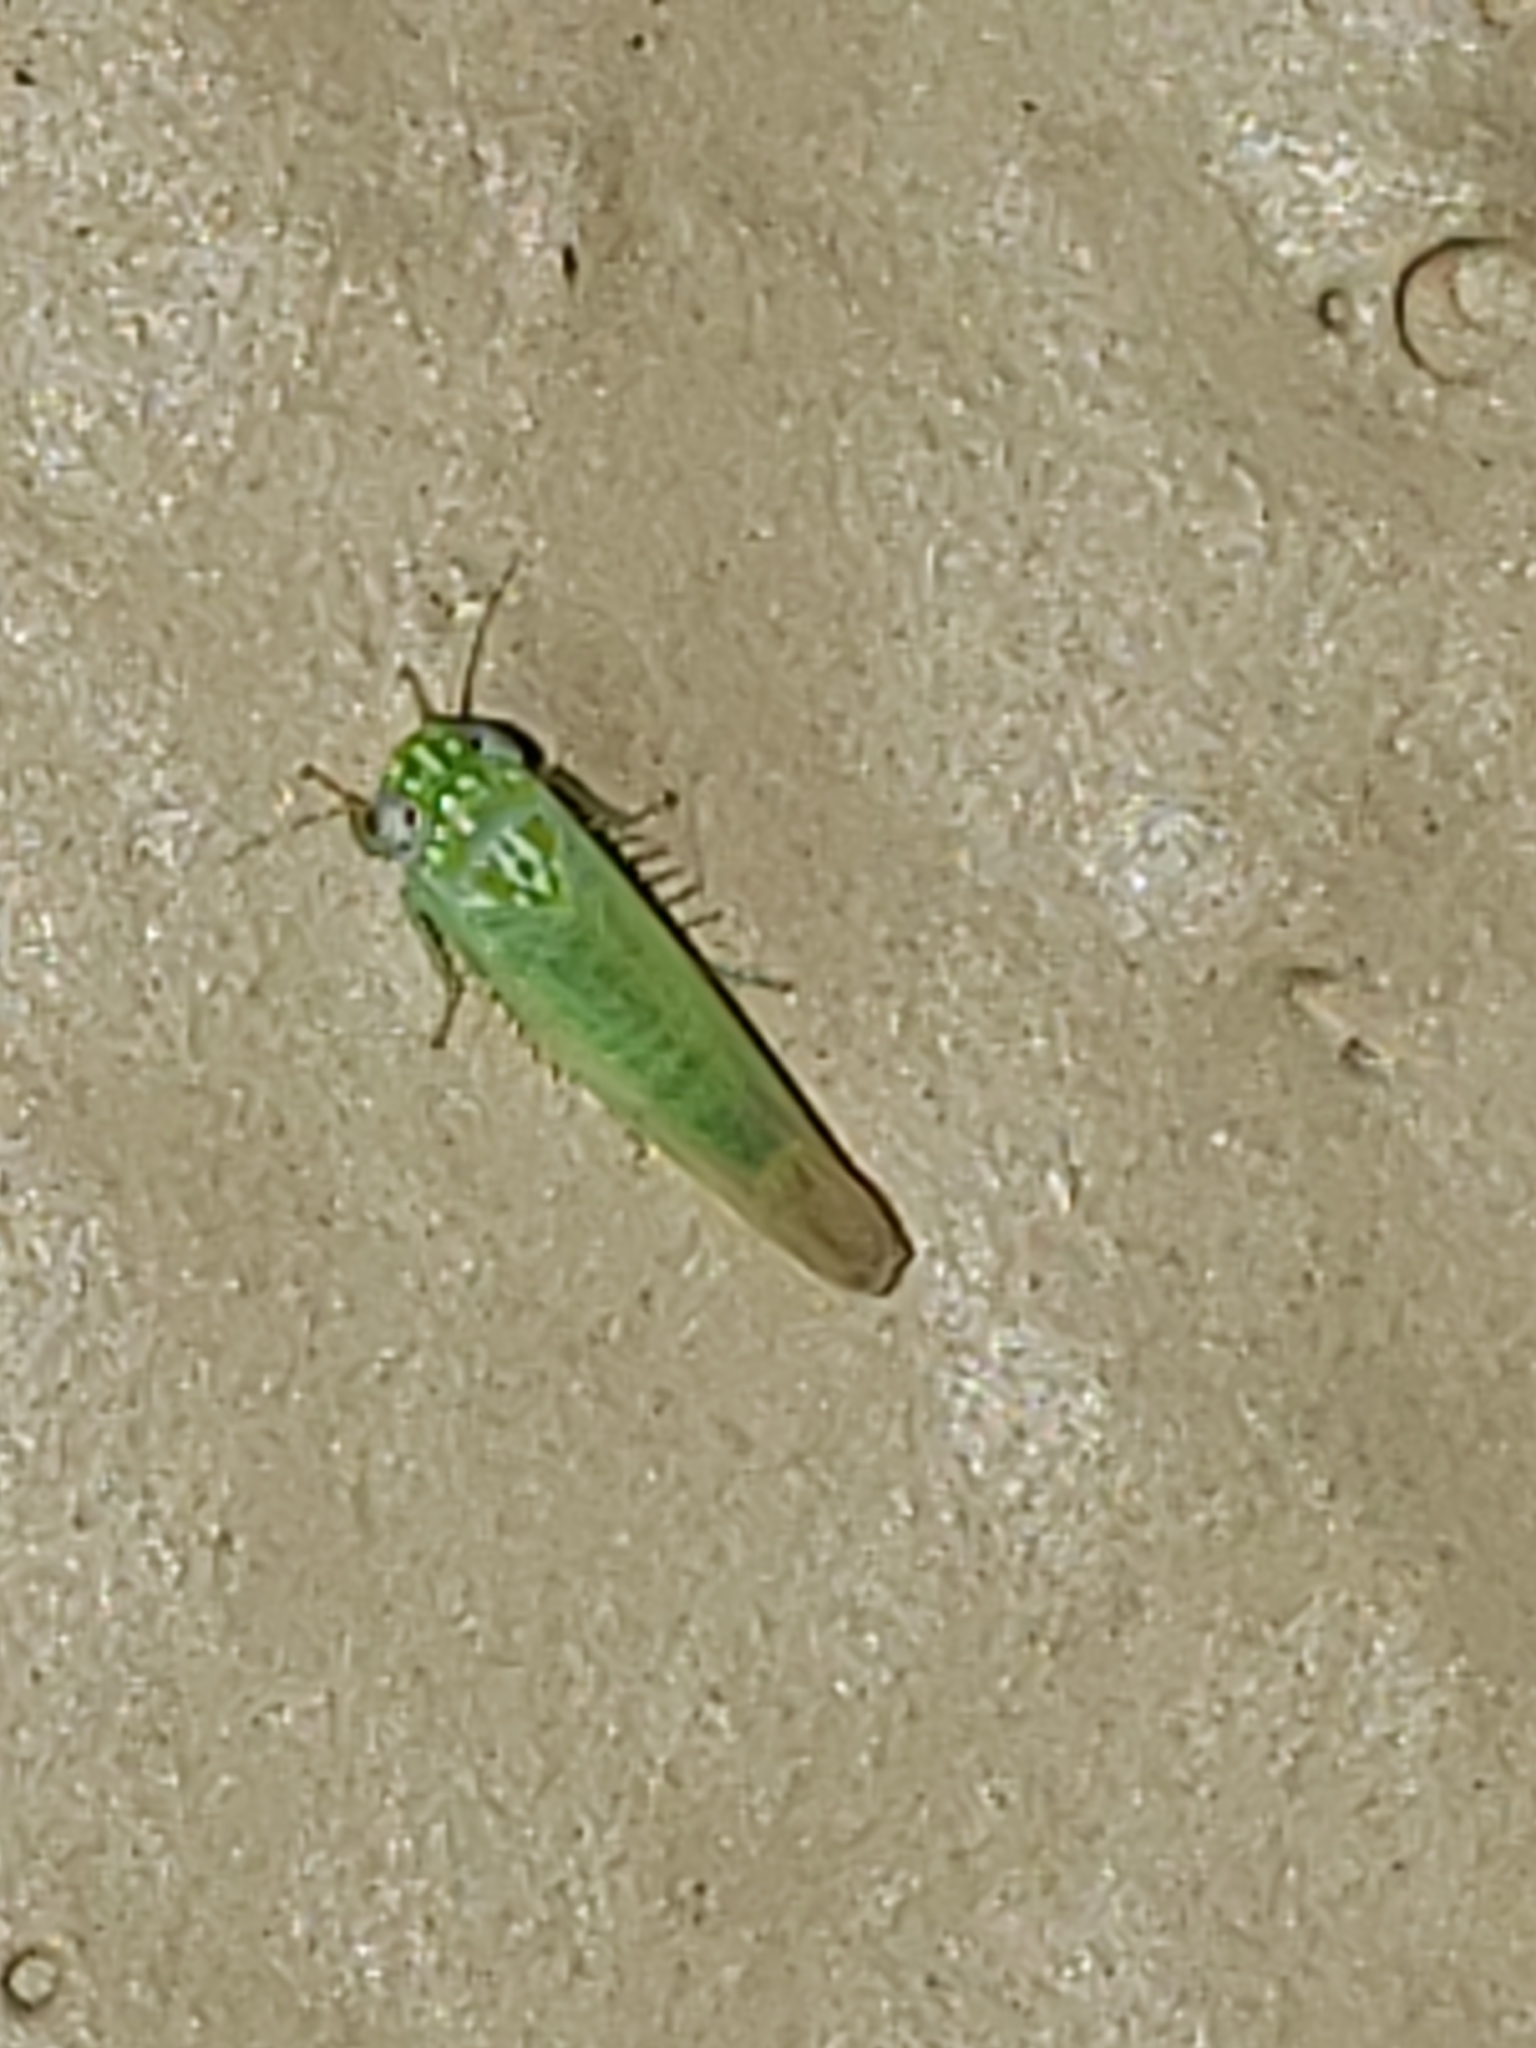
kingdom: Animalia
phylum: Arthropoda
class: Insecta
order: Hemiptera
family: Cicadellidae
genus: Empoasca
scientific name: Empoasca fabae
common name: Potato leafhopper
